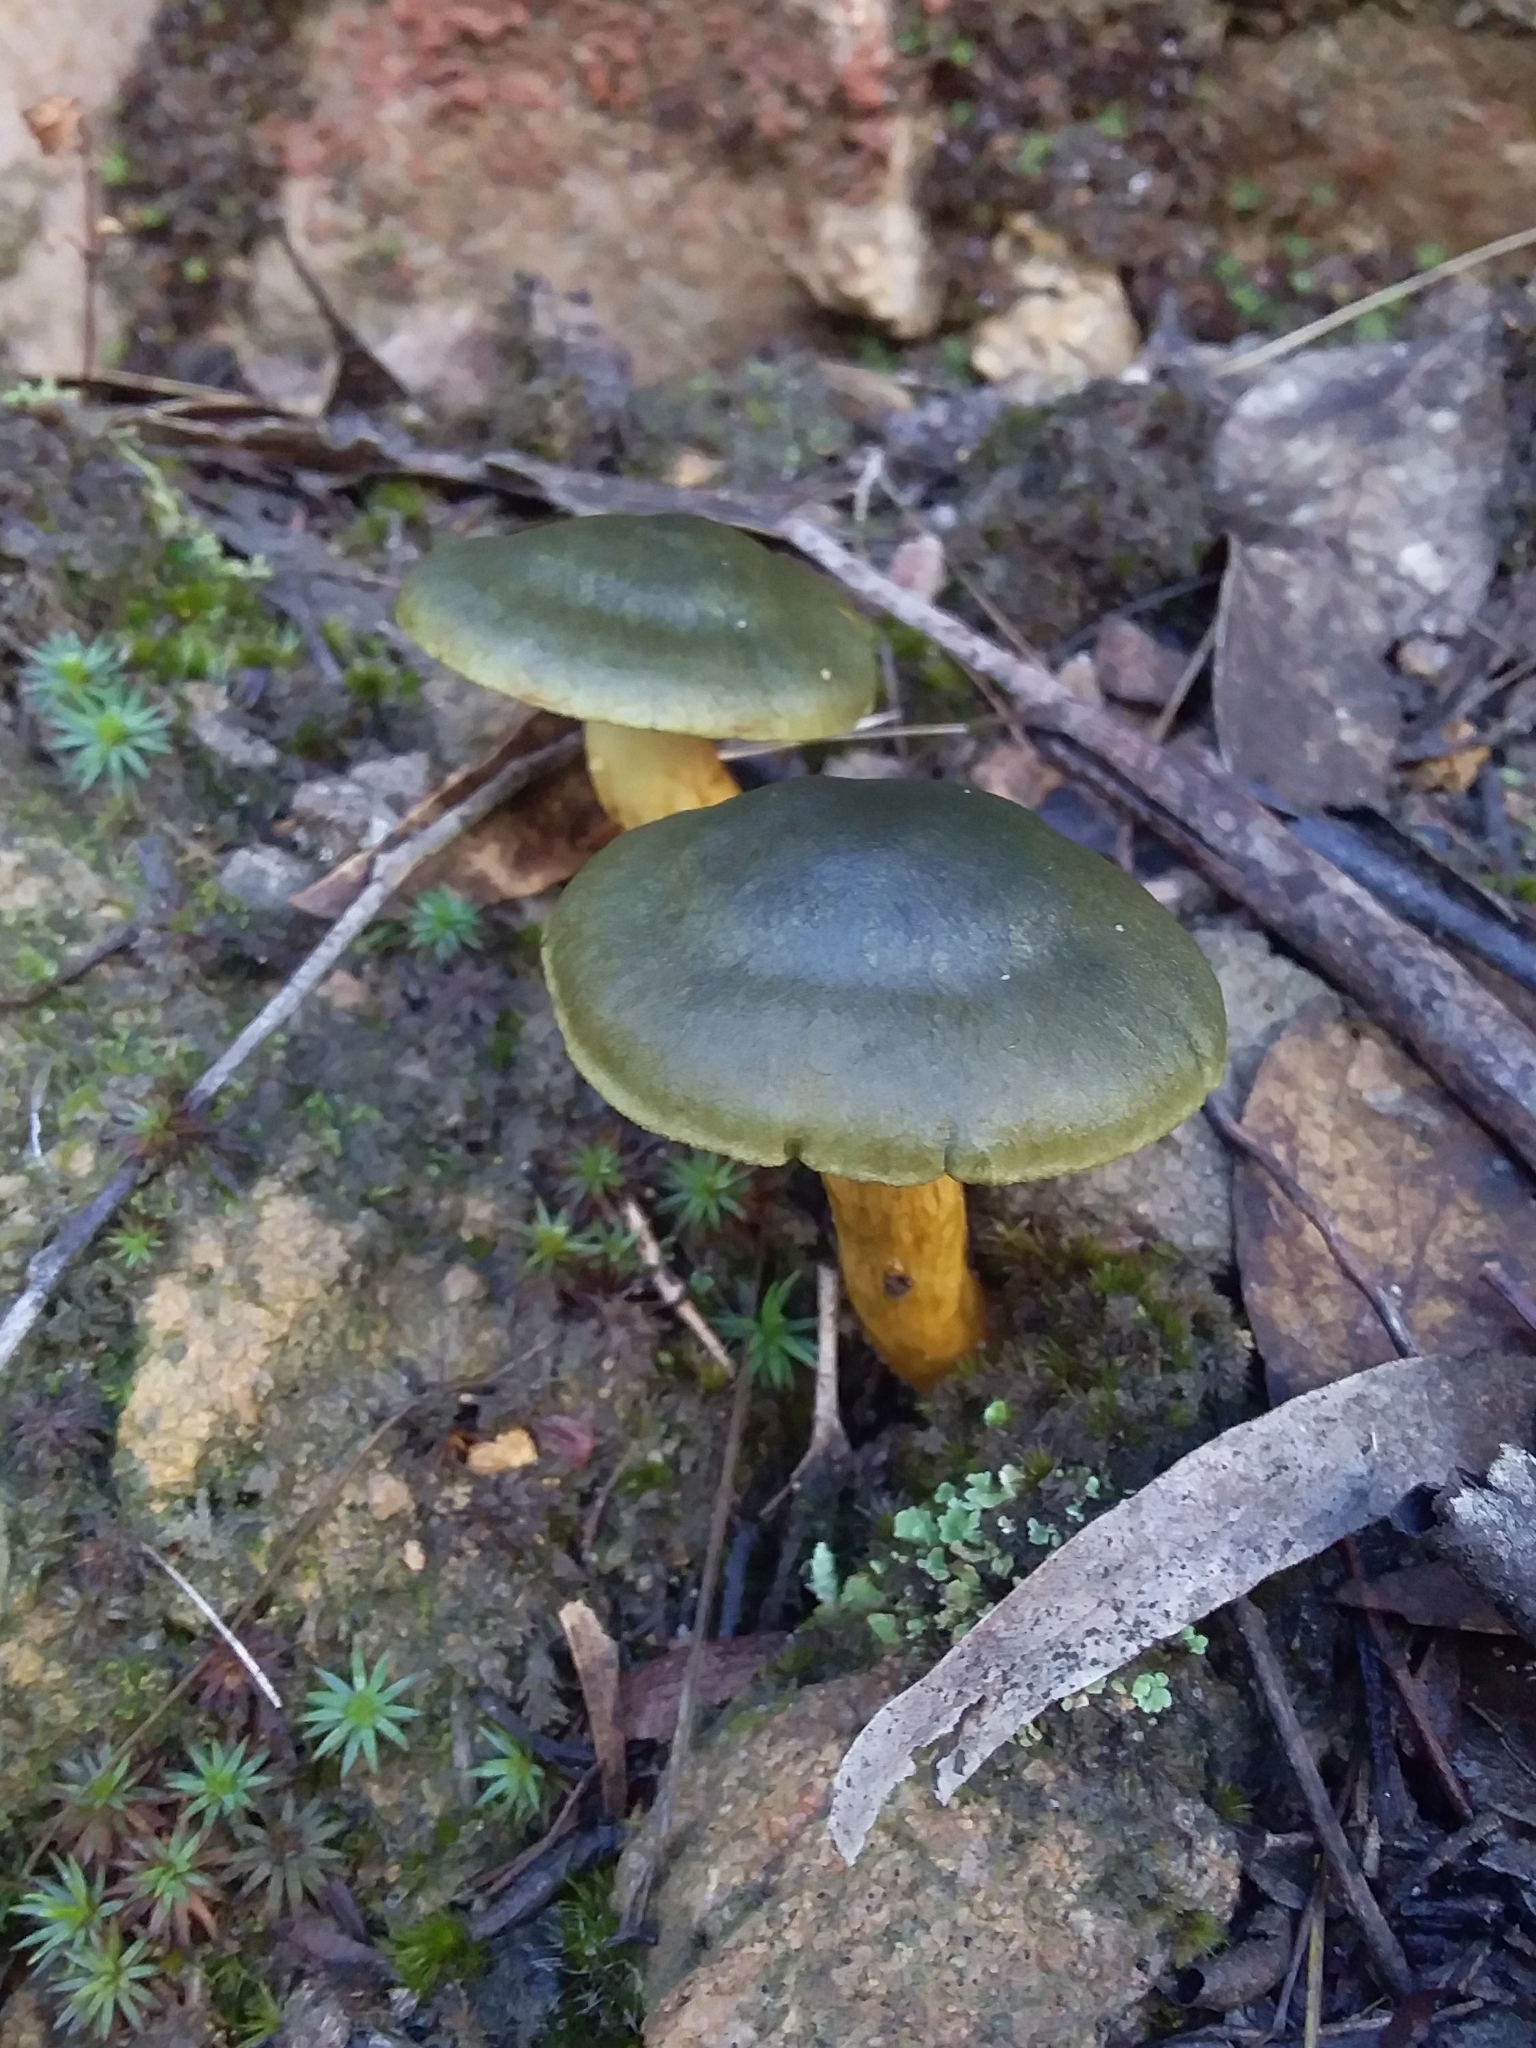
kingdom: Fungi
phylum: Basidiomycota
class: Agaricomycetes
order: Agaricales
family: Cortinariaceae
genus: Cortinarius
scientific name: Cortinarius austrovenetus
